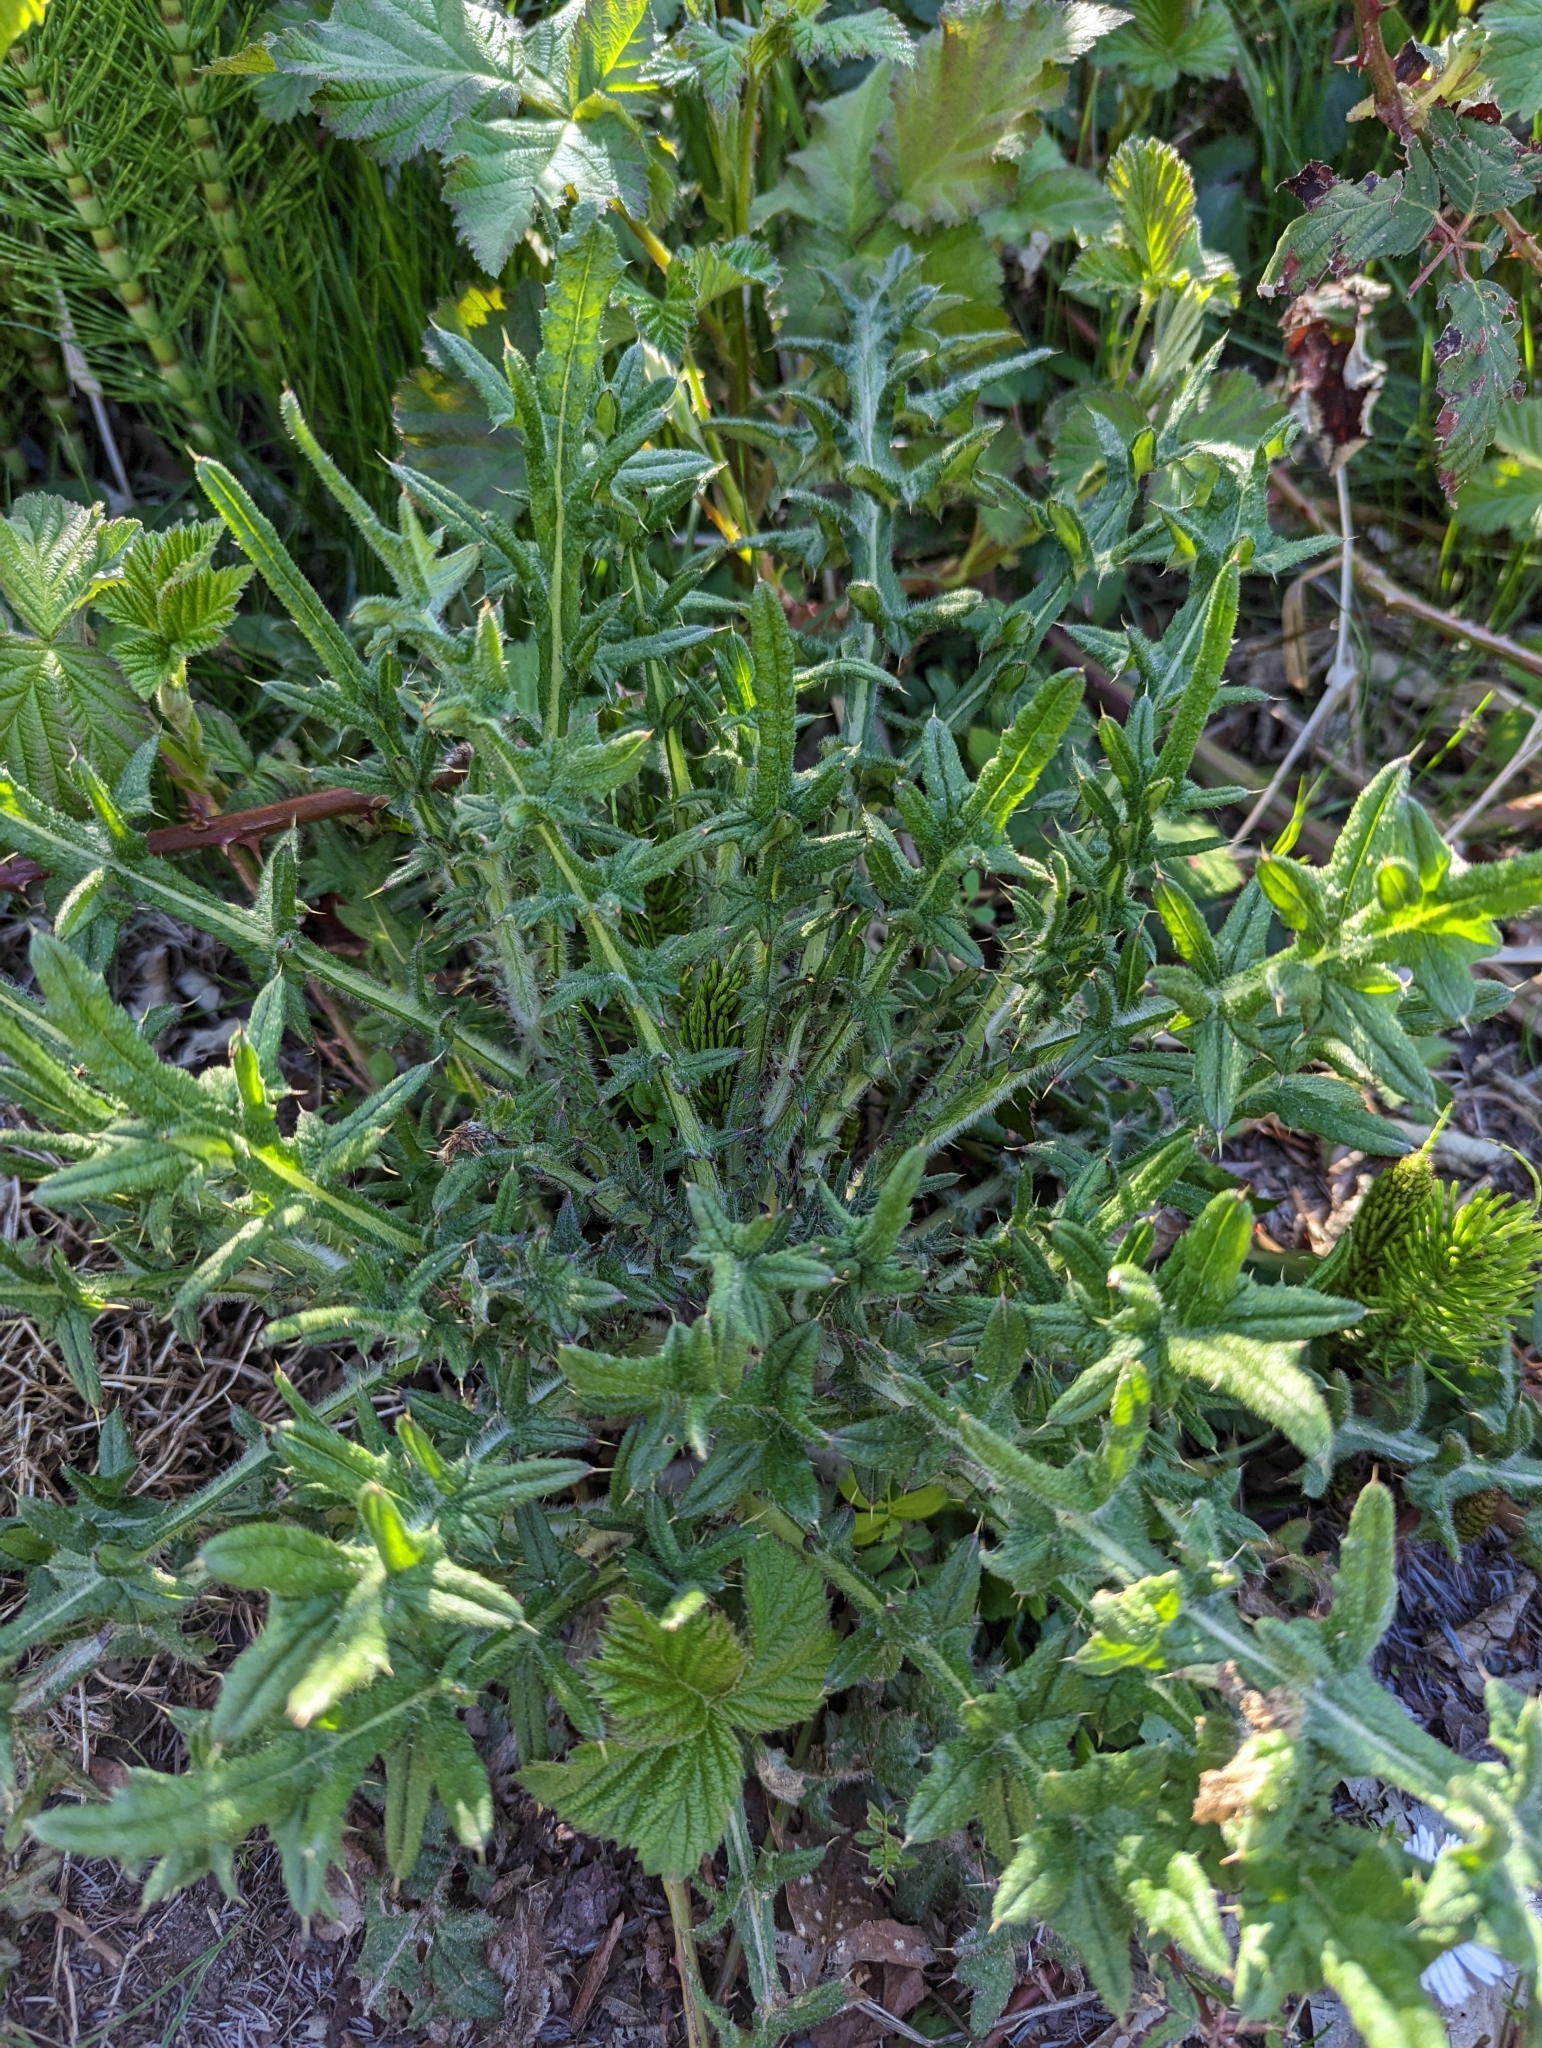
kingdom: Plantae
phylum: Tracheophyta
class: Magnoliopsida
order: Asterales
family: Asteraceae
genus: Cirsium
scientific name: Cirsium vulgare
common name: Bull thistle
